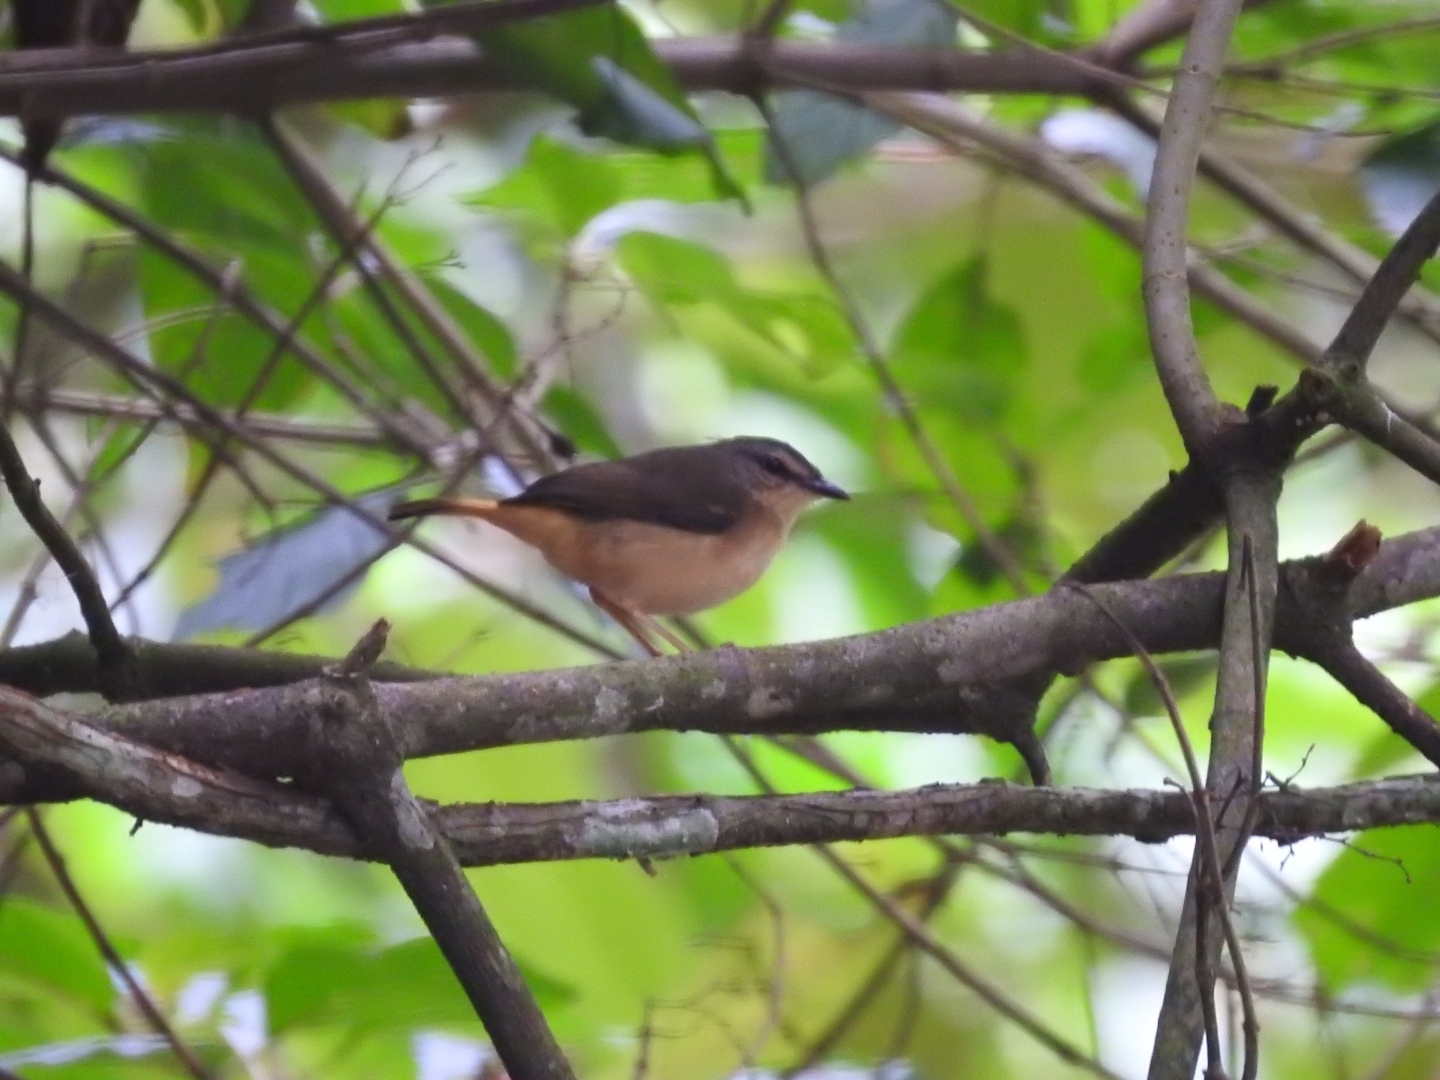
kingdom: Animalia
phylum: Chordata
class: Aves
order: Passeriformes
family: Parulidae
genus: Myiothlypis
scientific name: Myiothlypis fulvicauda
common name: Buff-rumped warbler
